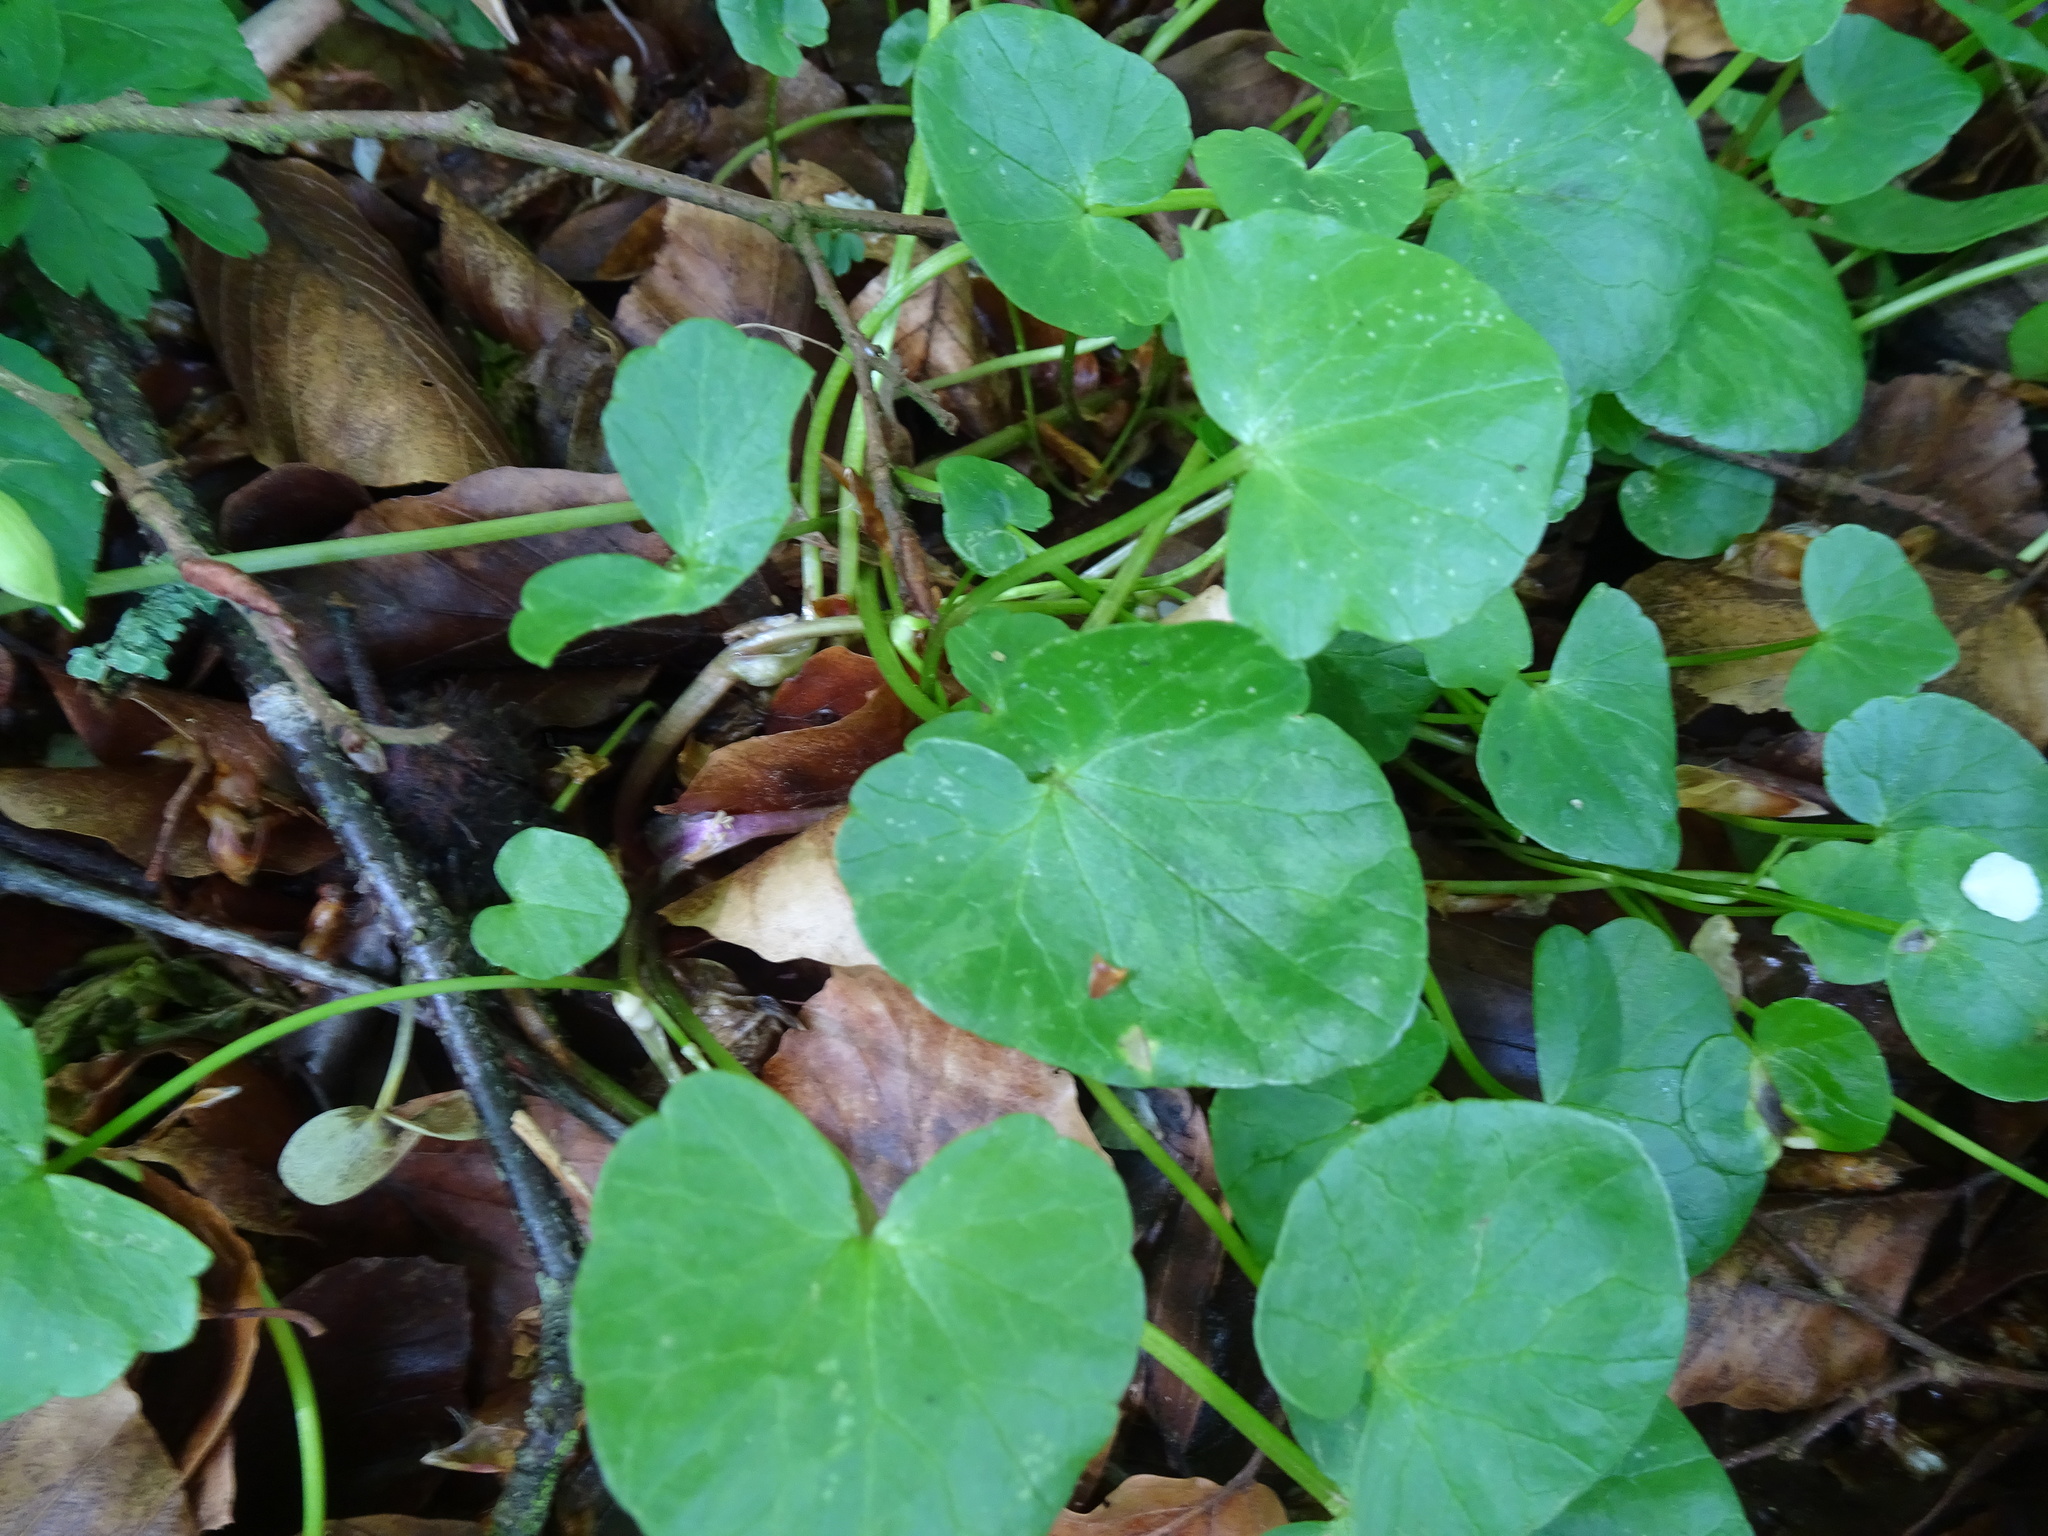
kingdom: Plantae
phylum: Tracheophyta
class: Magnoliopsida
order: Ranunculales
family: Ranunculaceae
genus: Ficaria
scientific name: Ficaria verna
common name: Lesser celandine
